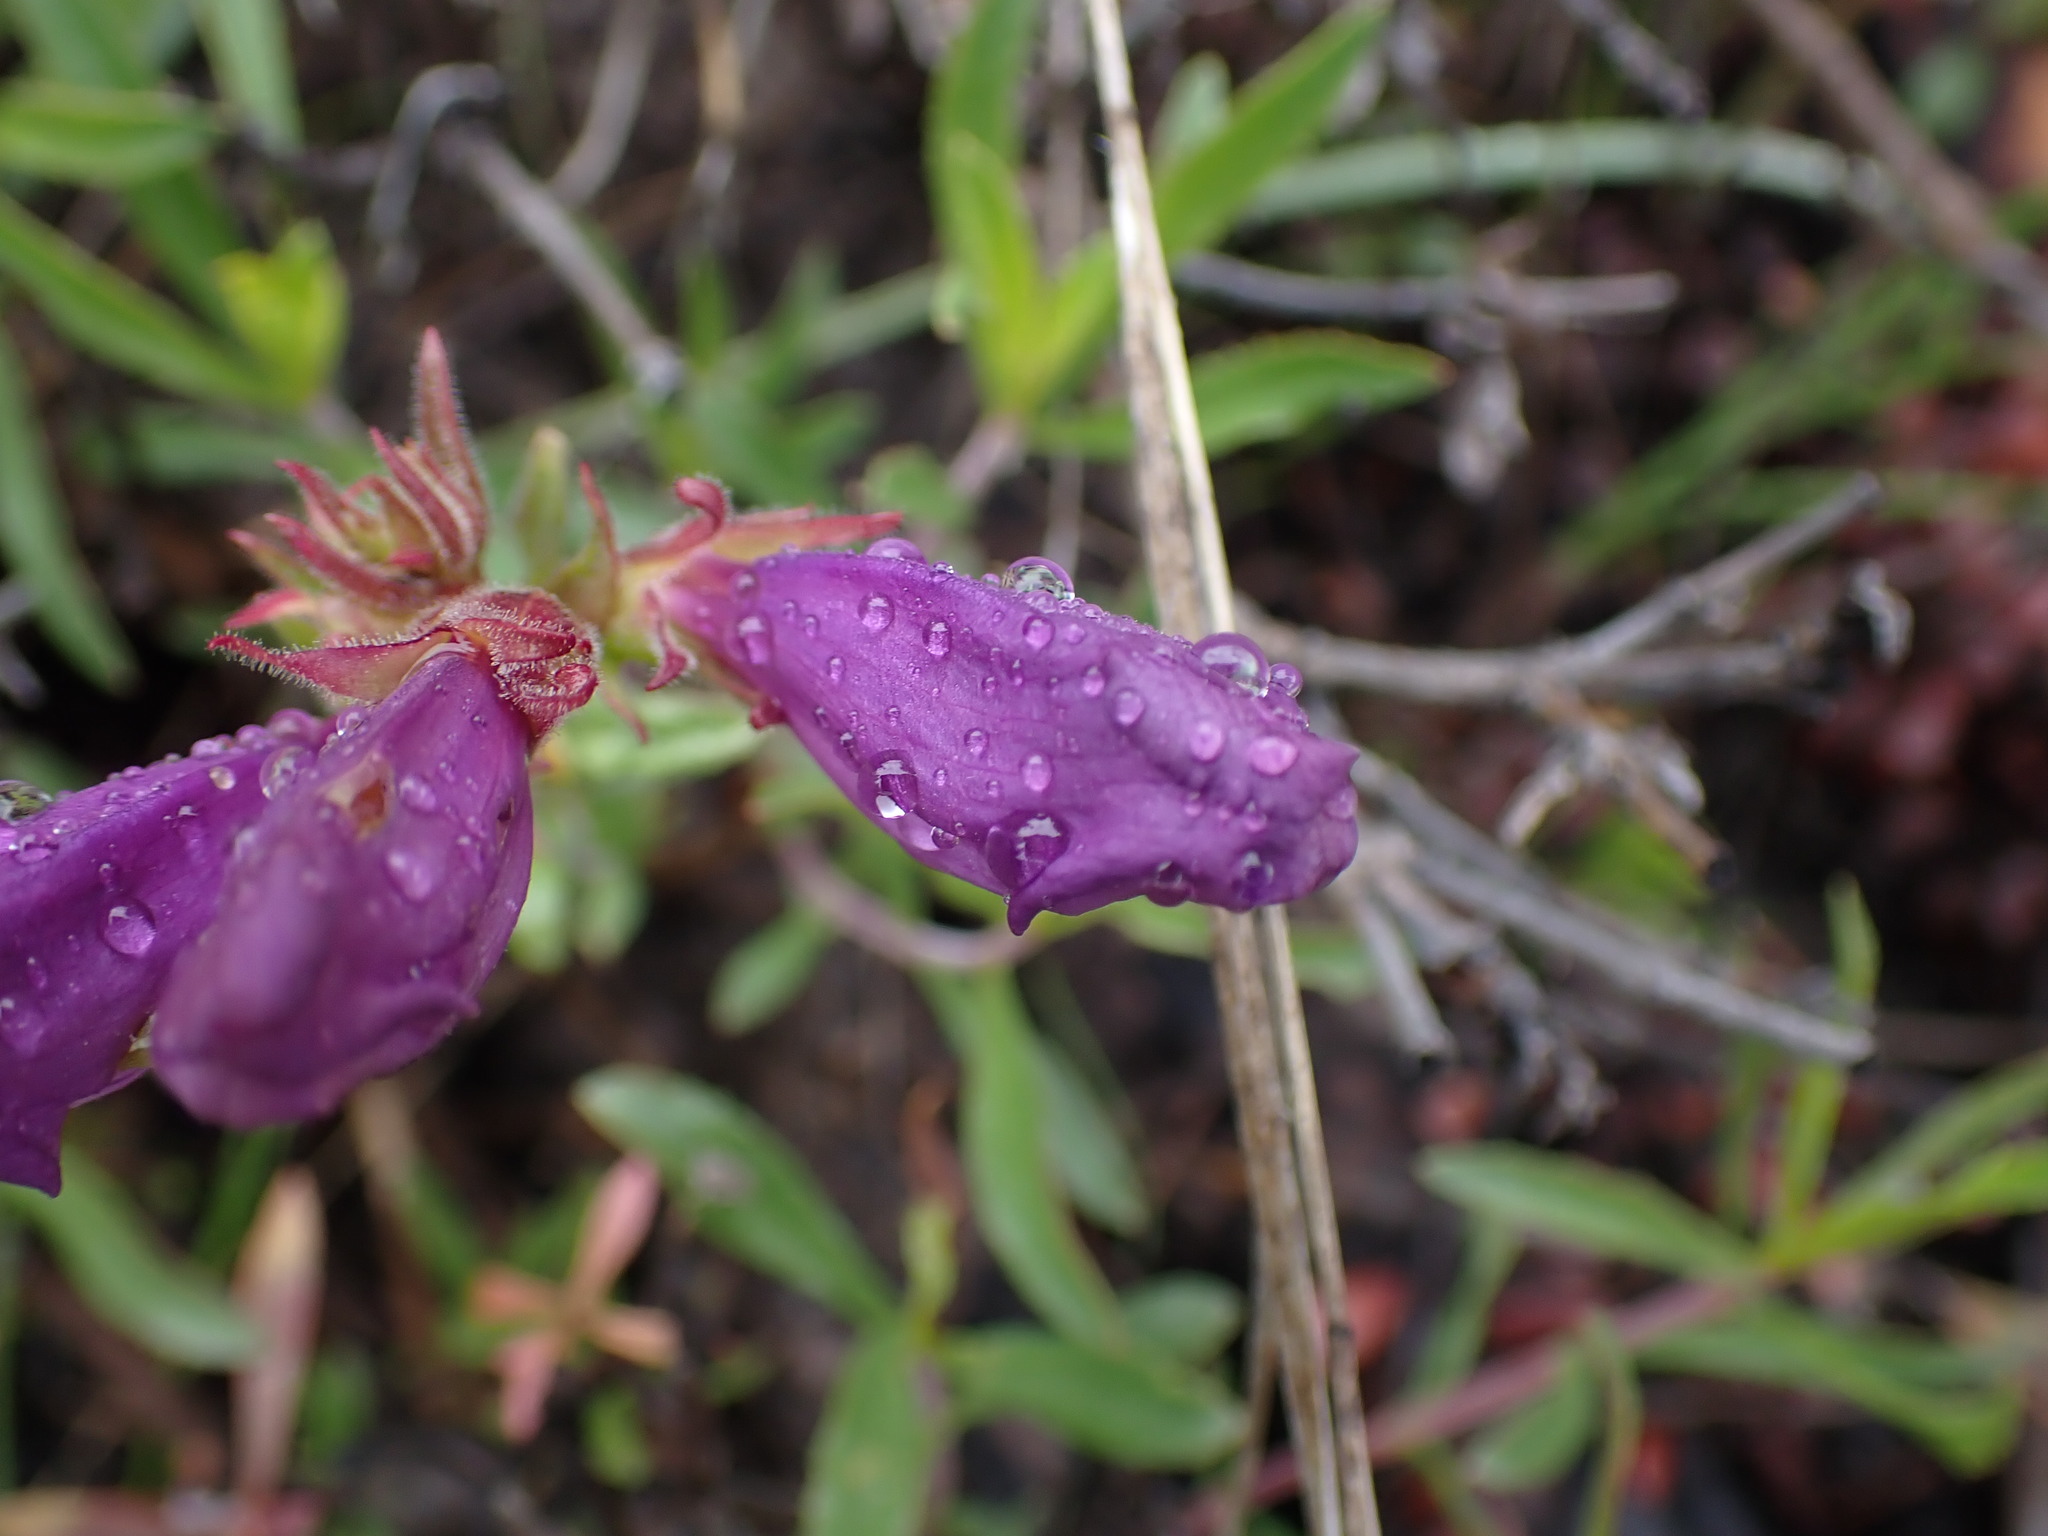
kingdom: Plantae
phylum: Tracheophyta
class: Magnoliopsida
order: Lamiales
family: Plantaginaceae
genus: Penstemon
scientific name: Penstemon fruticosus
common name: Bush penstemon
